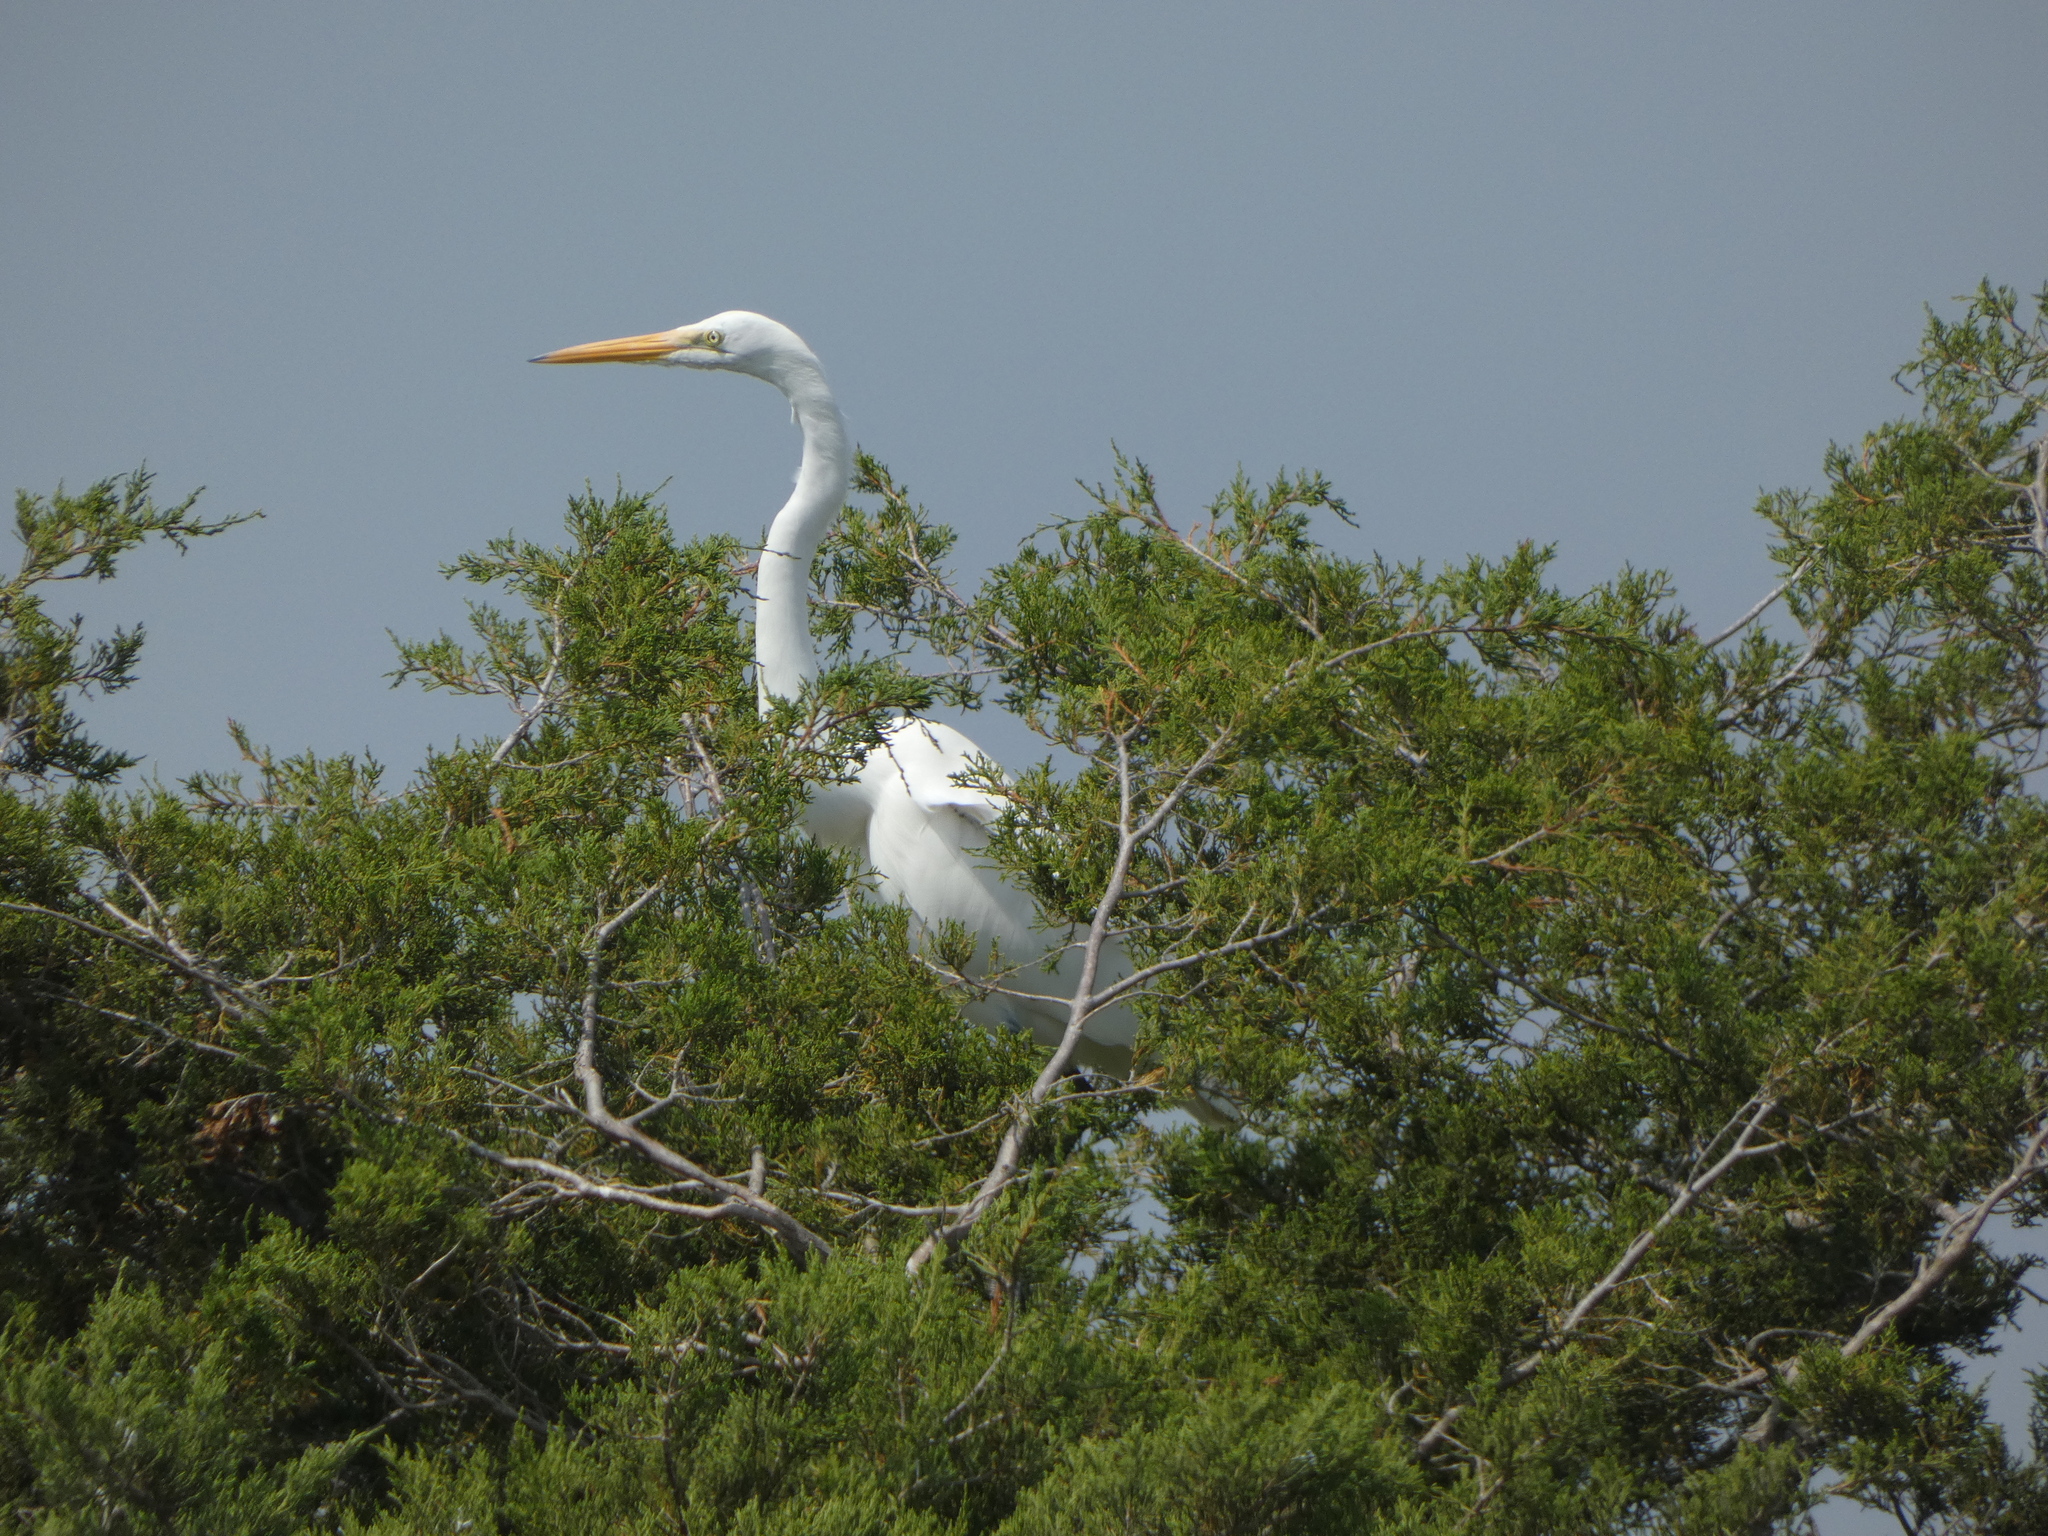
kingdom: Animalia
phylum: Chordata
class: Aves
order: Pelecaniformes
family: Ardeidae
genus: Ardea
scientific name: Ardea alba
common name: Great egret
